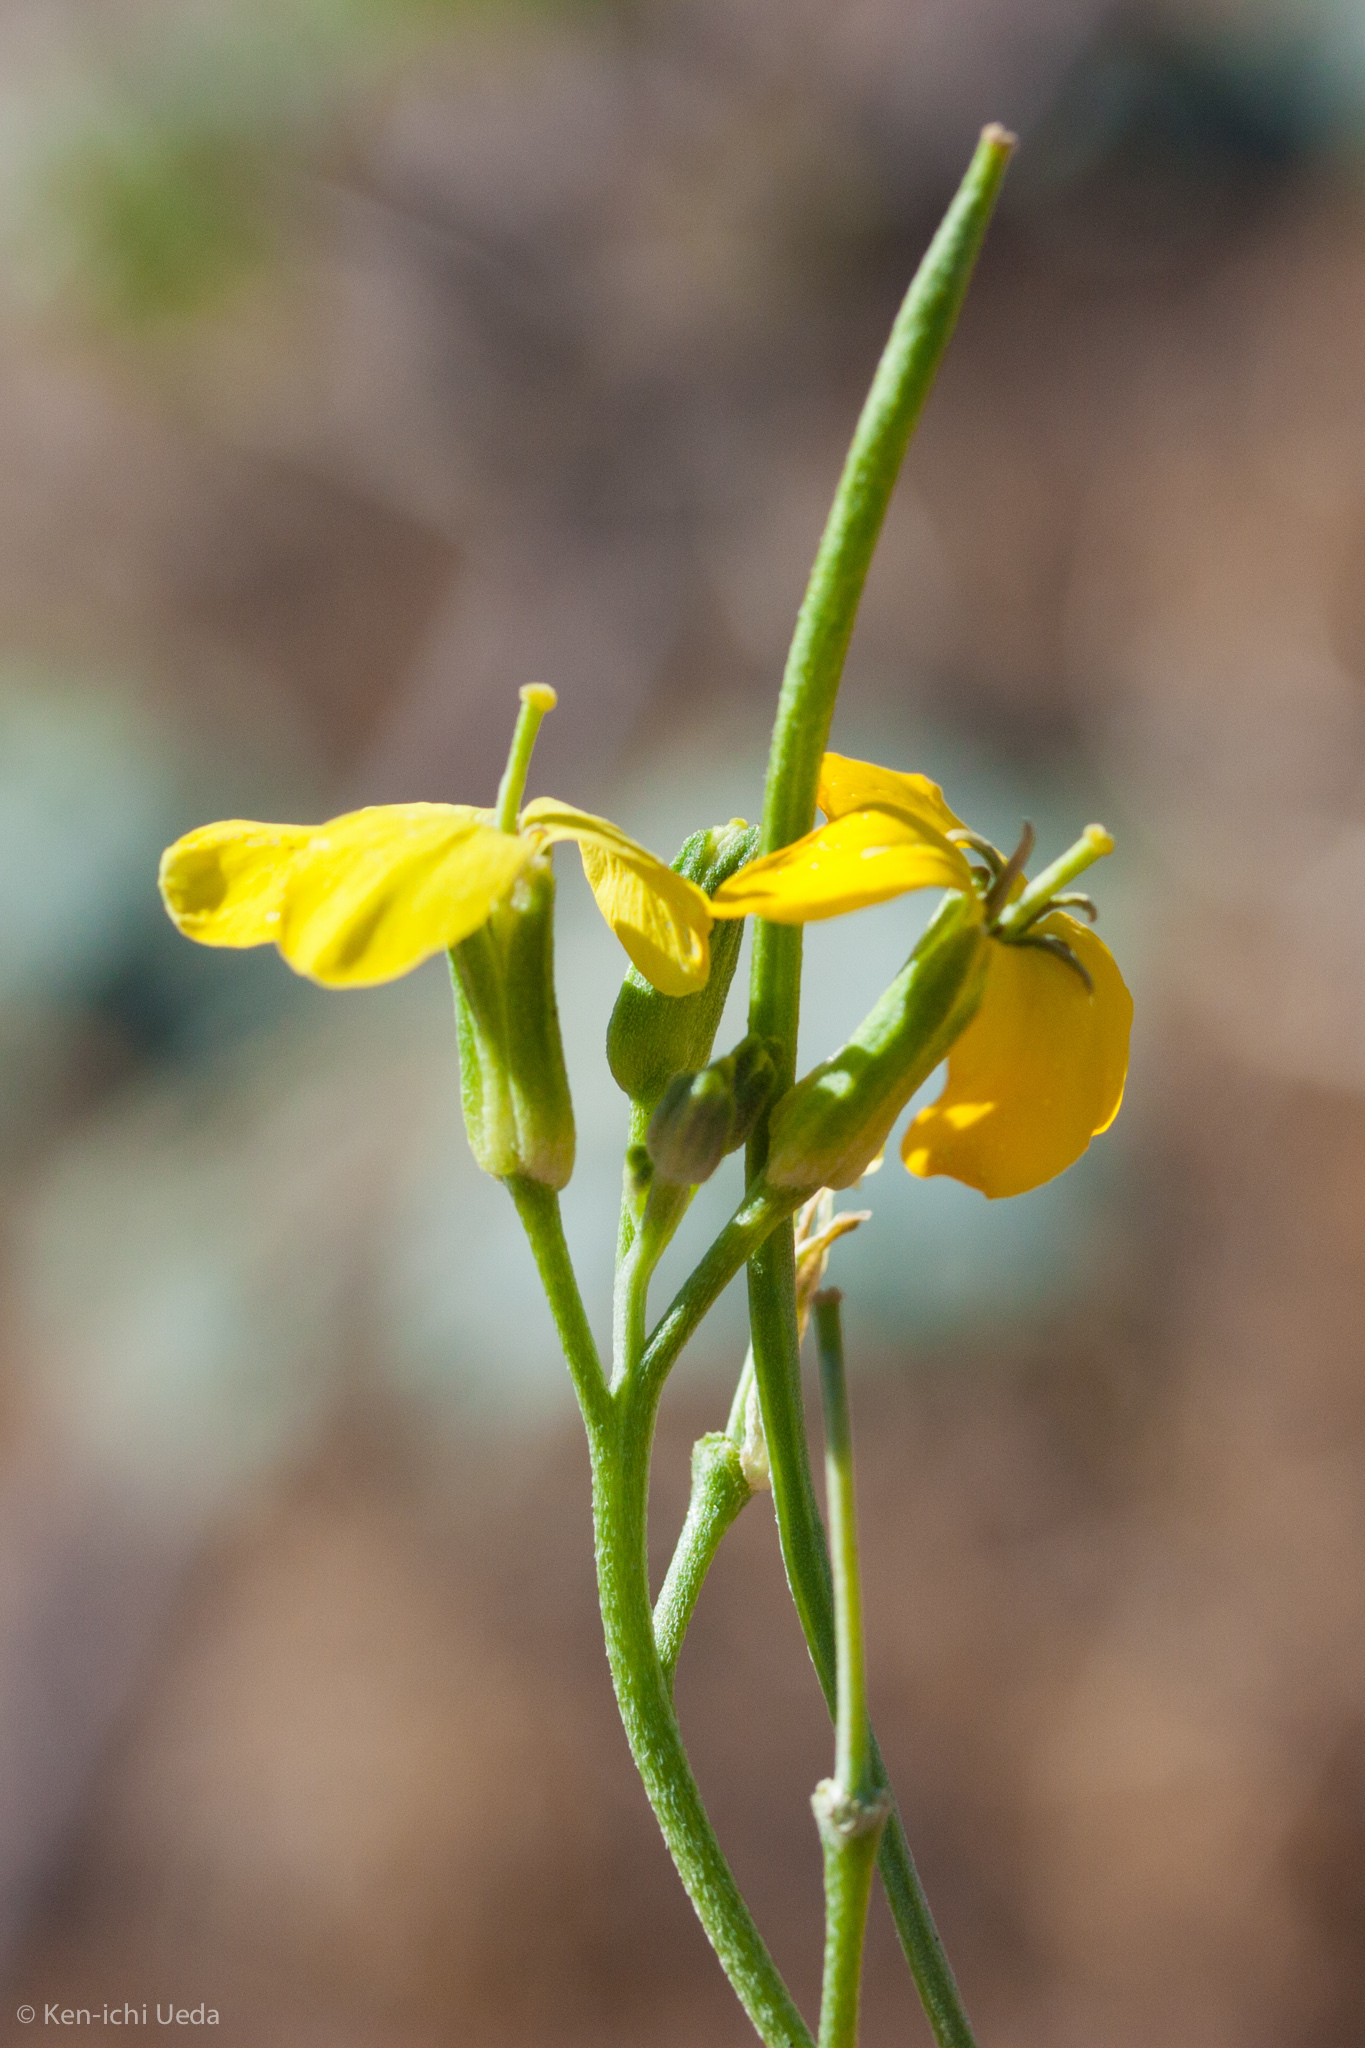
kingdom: Plantae
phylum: Tracheophyta
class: Magnoliopsida
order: Brassicales
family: Brassicaceae
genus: Erysimum
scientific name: Erysimum capitatum
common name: Western wallflower
